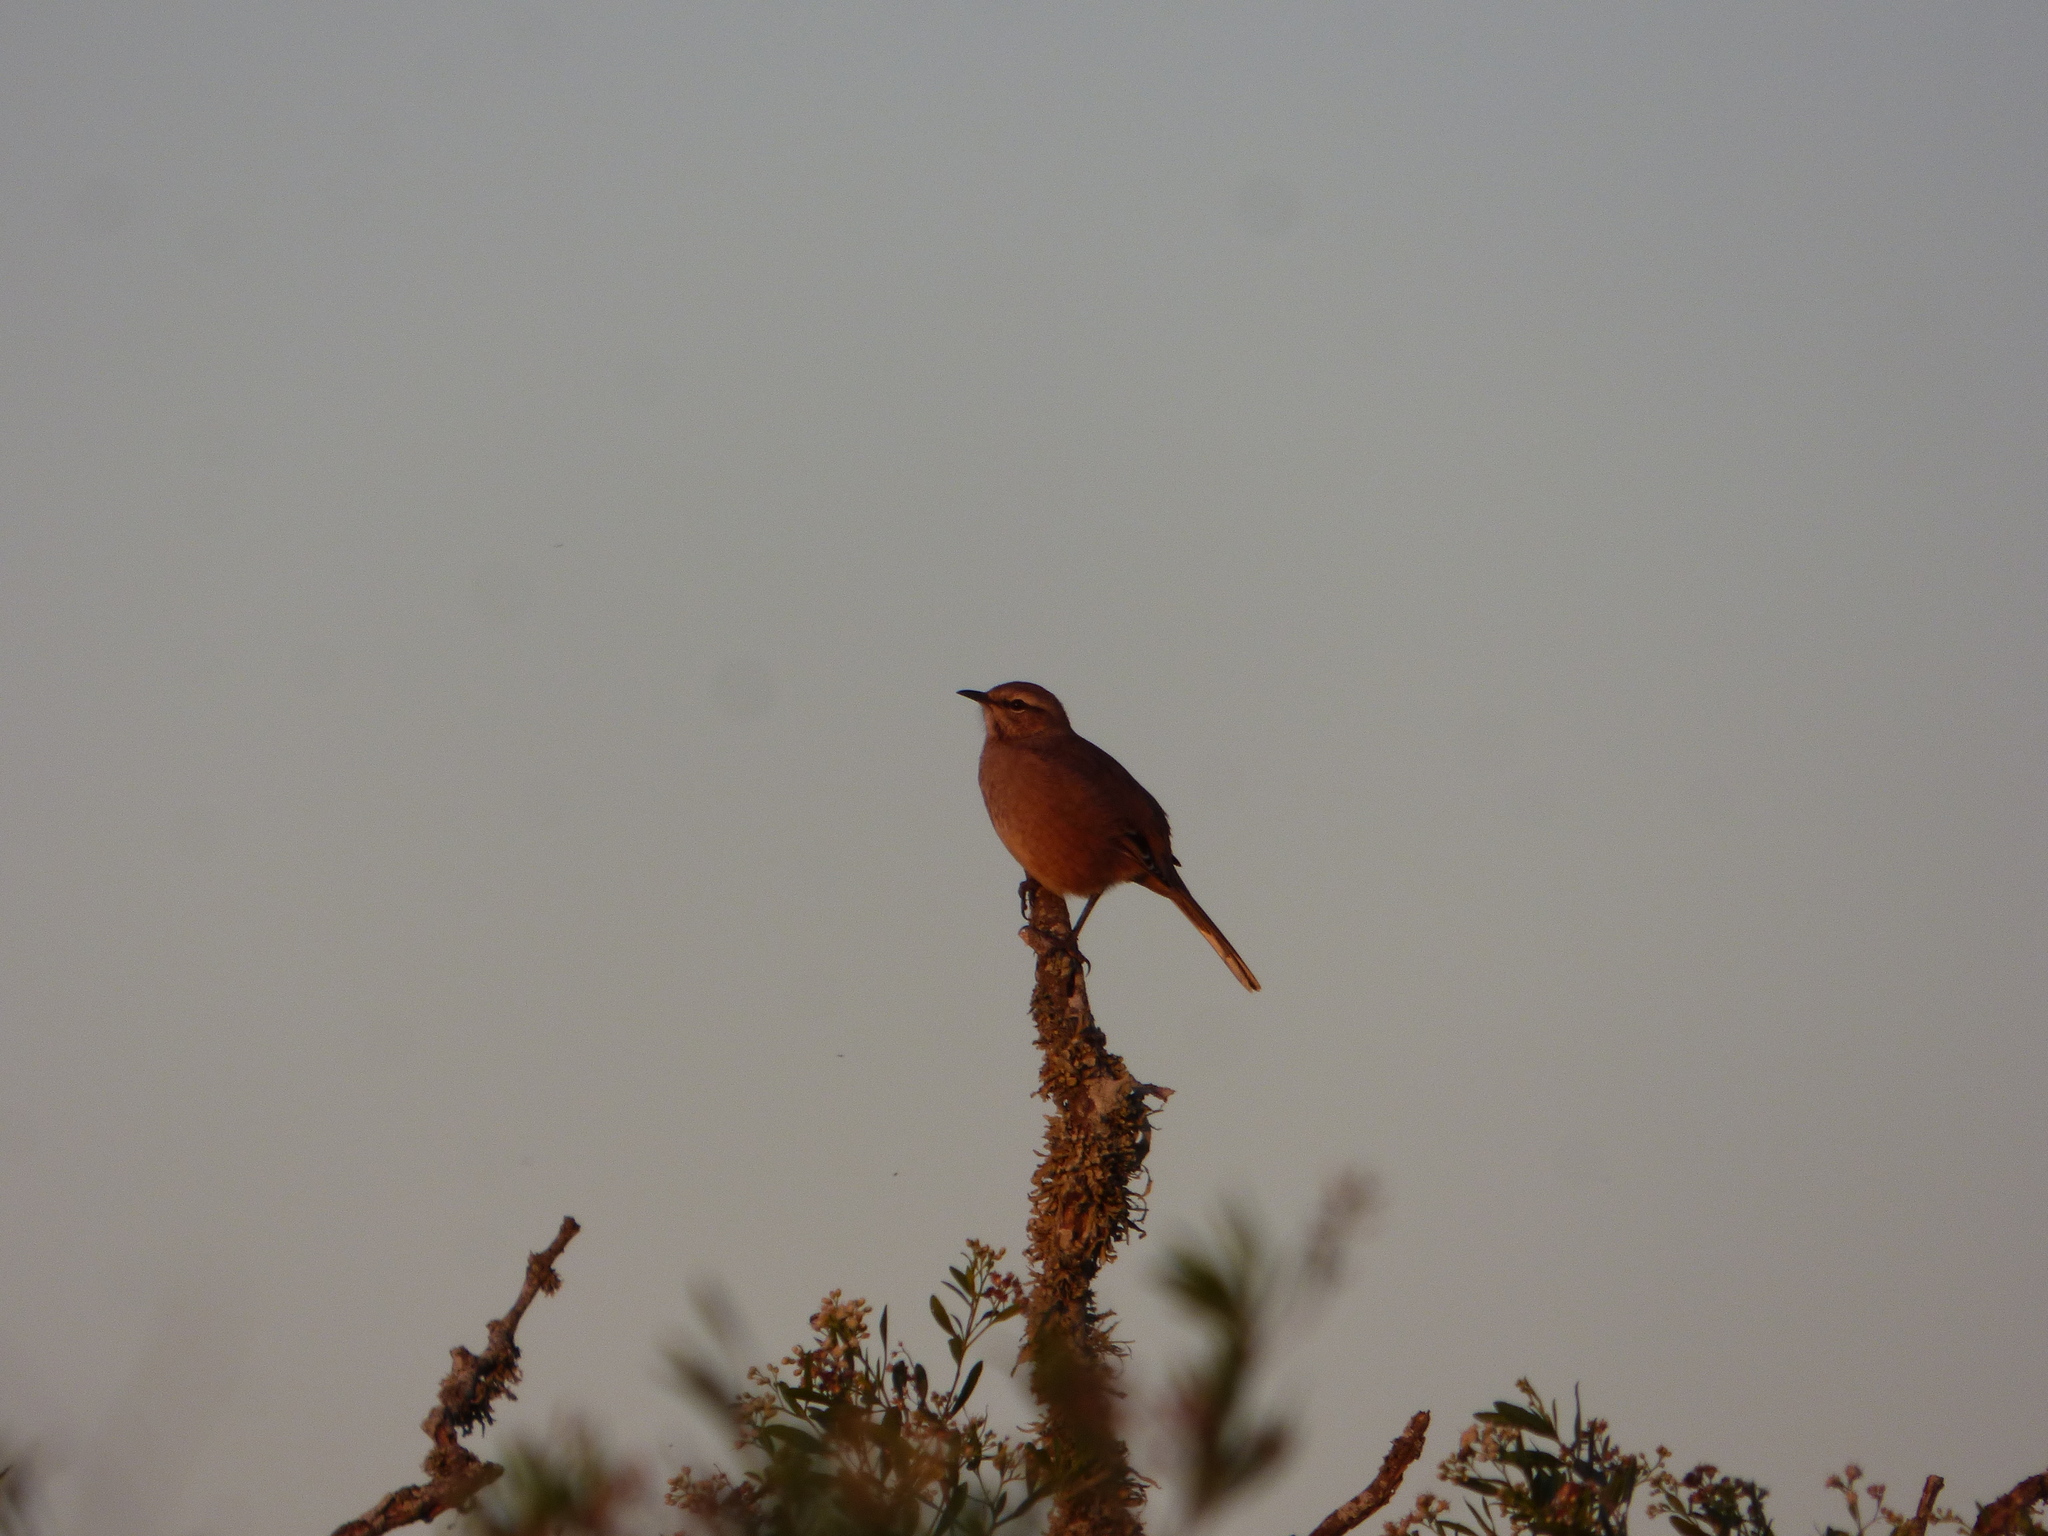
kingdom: Animalia
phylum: Chordata
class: Aves
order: Passeriformes
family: Mimidae
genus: Mimus
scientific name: Mimus patagonicus
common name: Patagonian mockingbird
